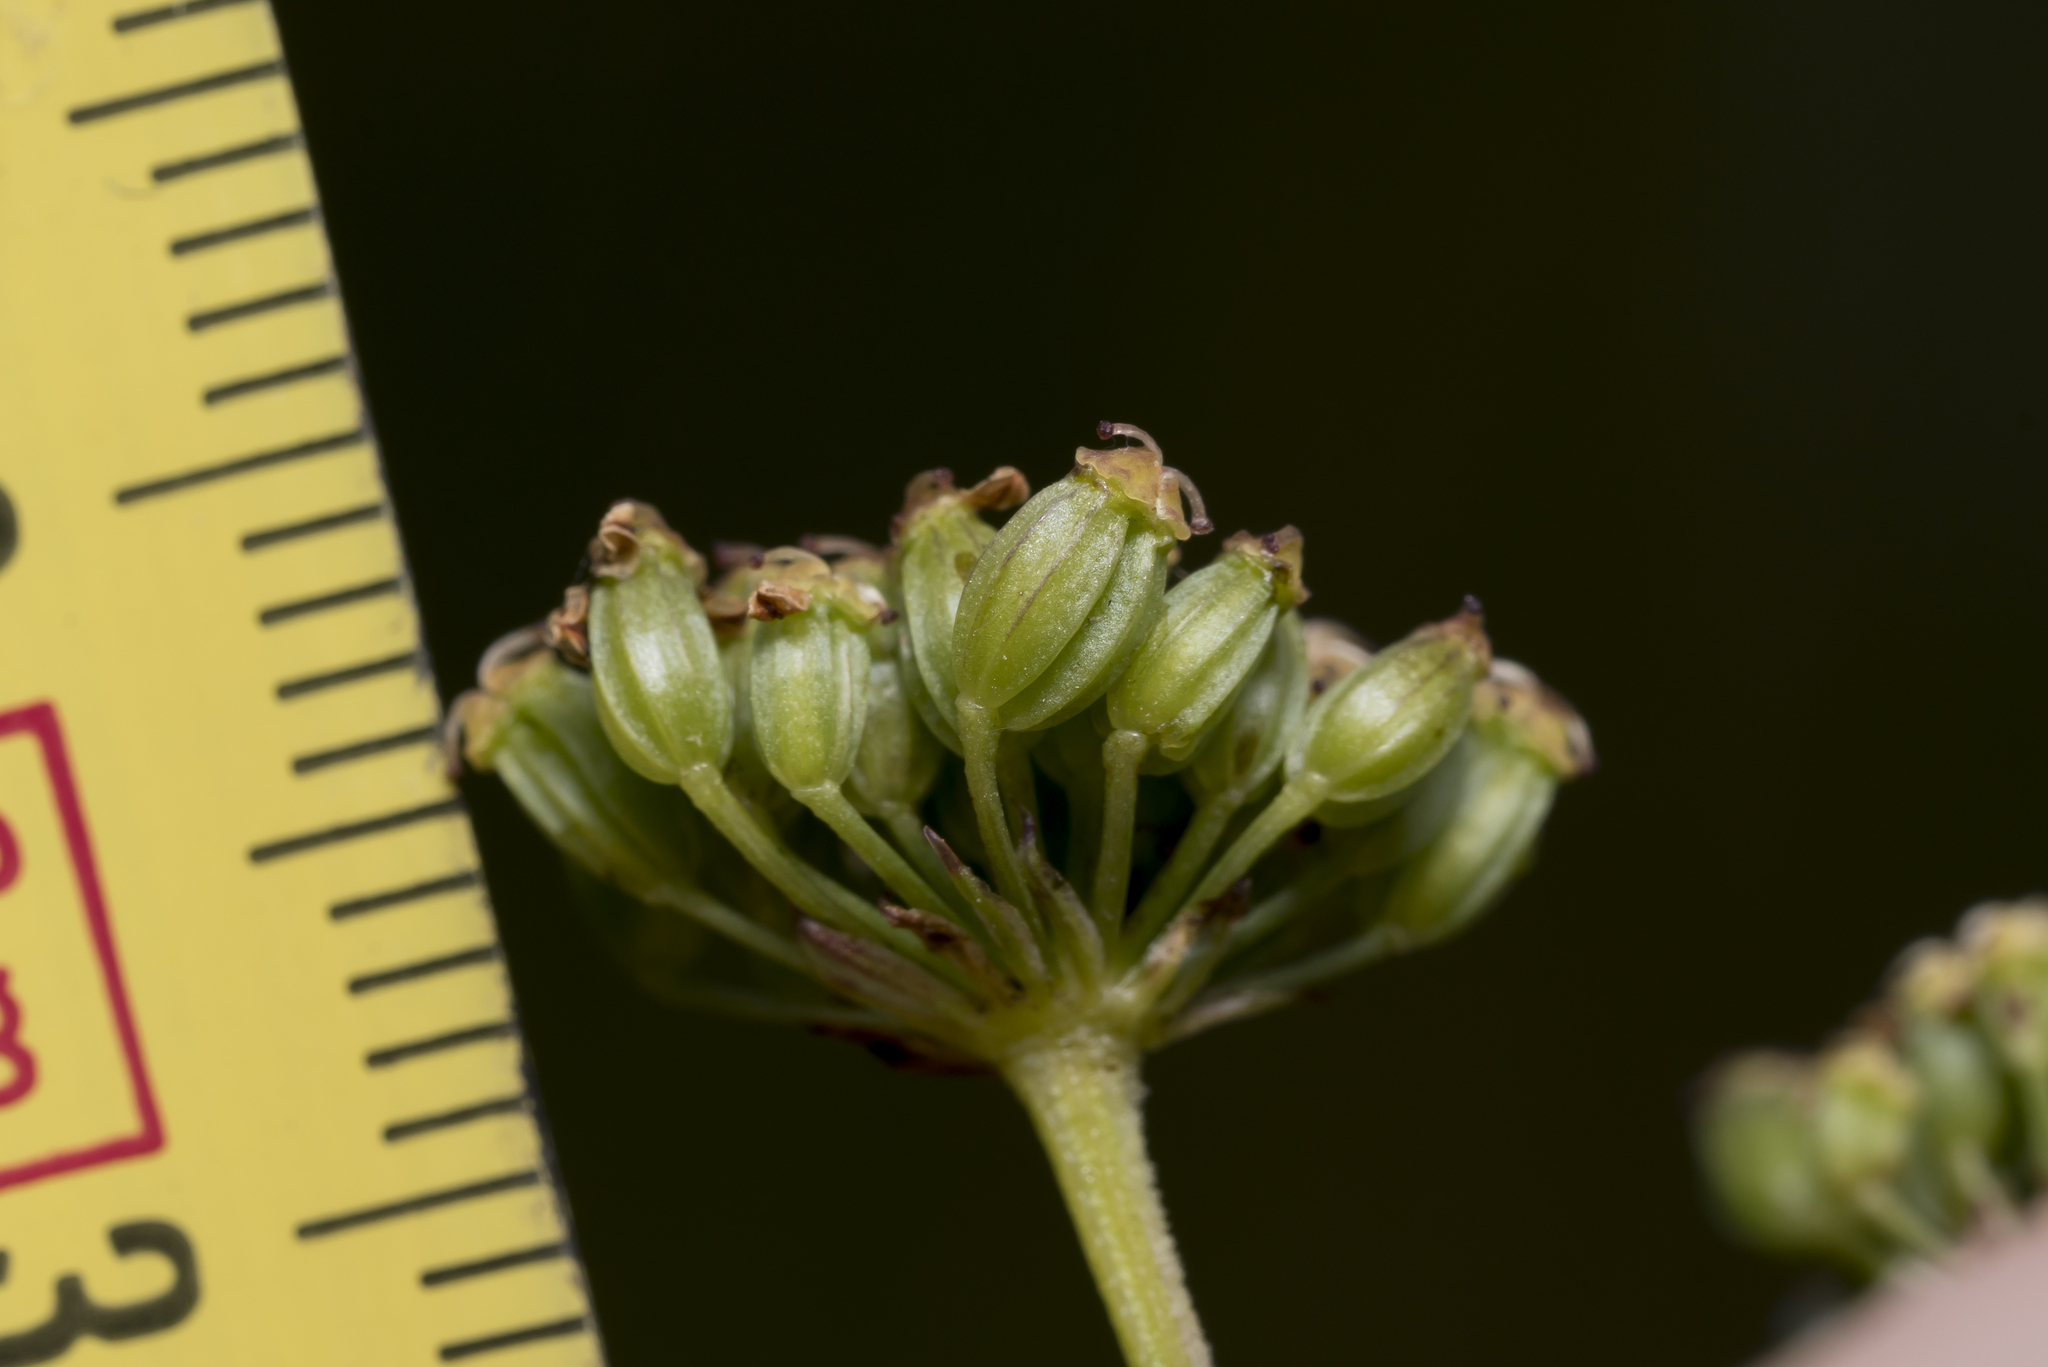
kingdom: Plantae
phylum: Tracheophyta
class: Magnoliopsida
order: Apiales
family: Apiaceae
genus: Silaum
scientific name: Silaum silaus
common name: Pepper-saxifrage
